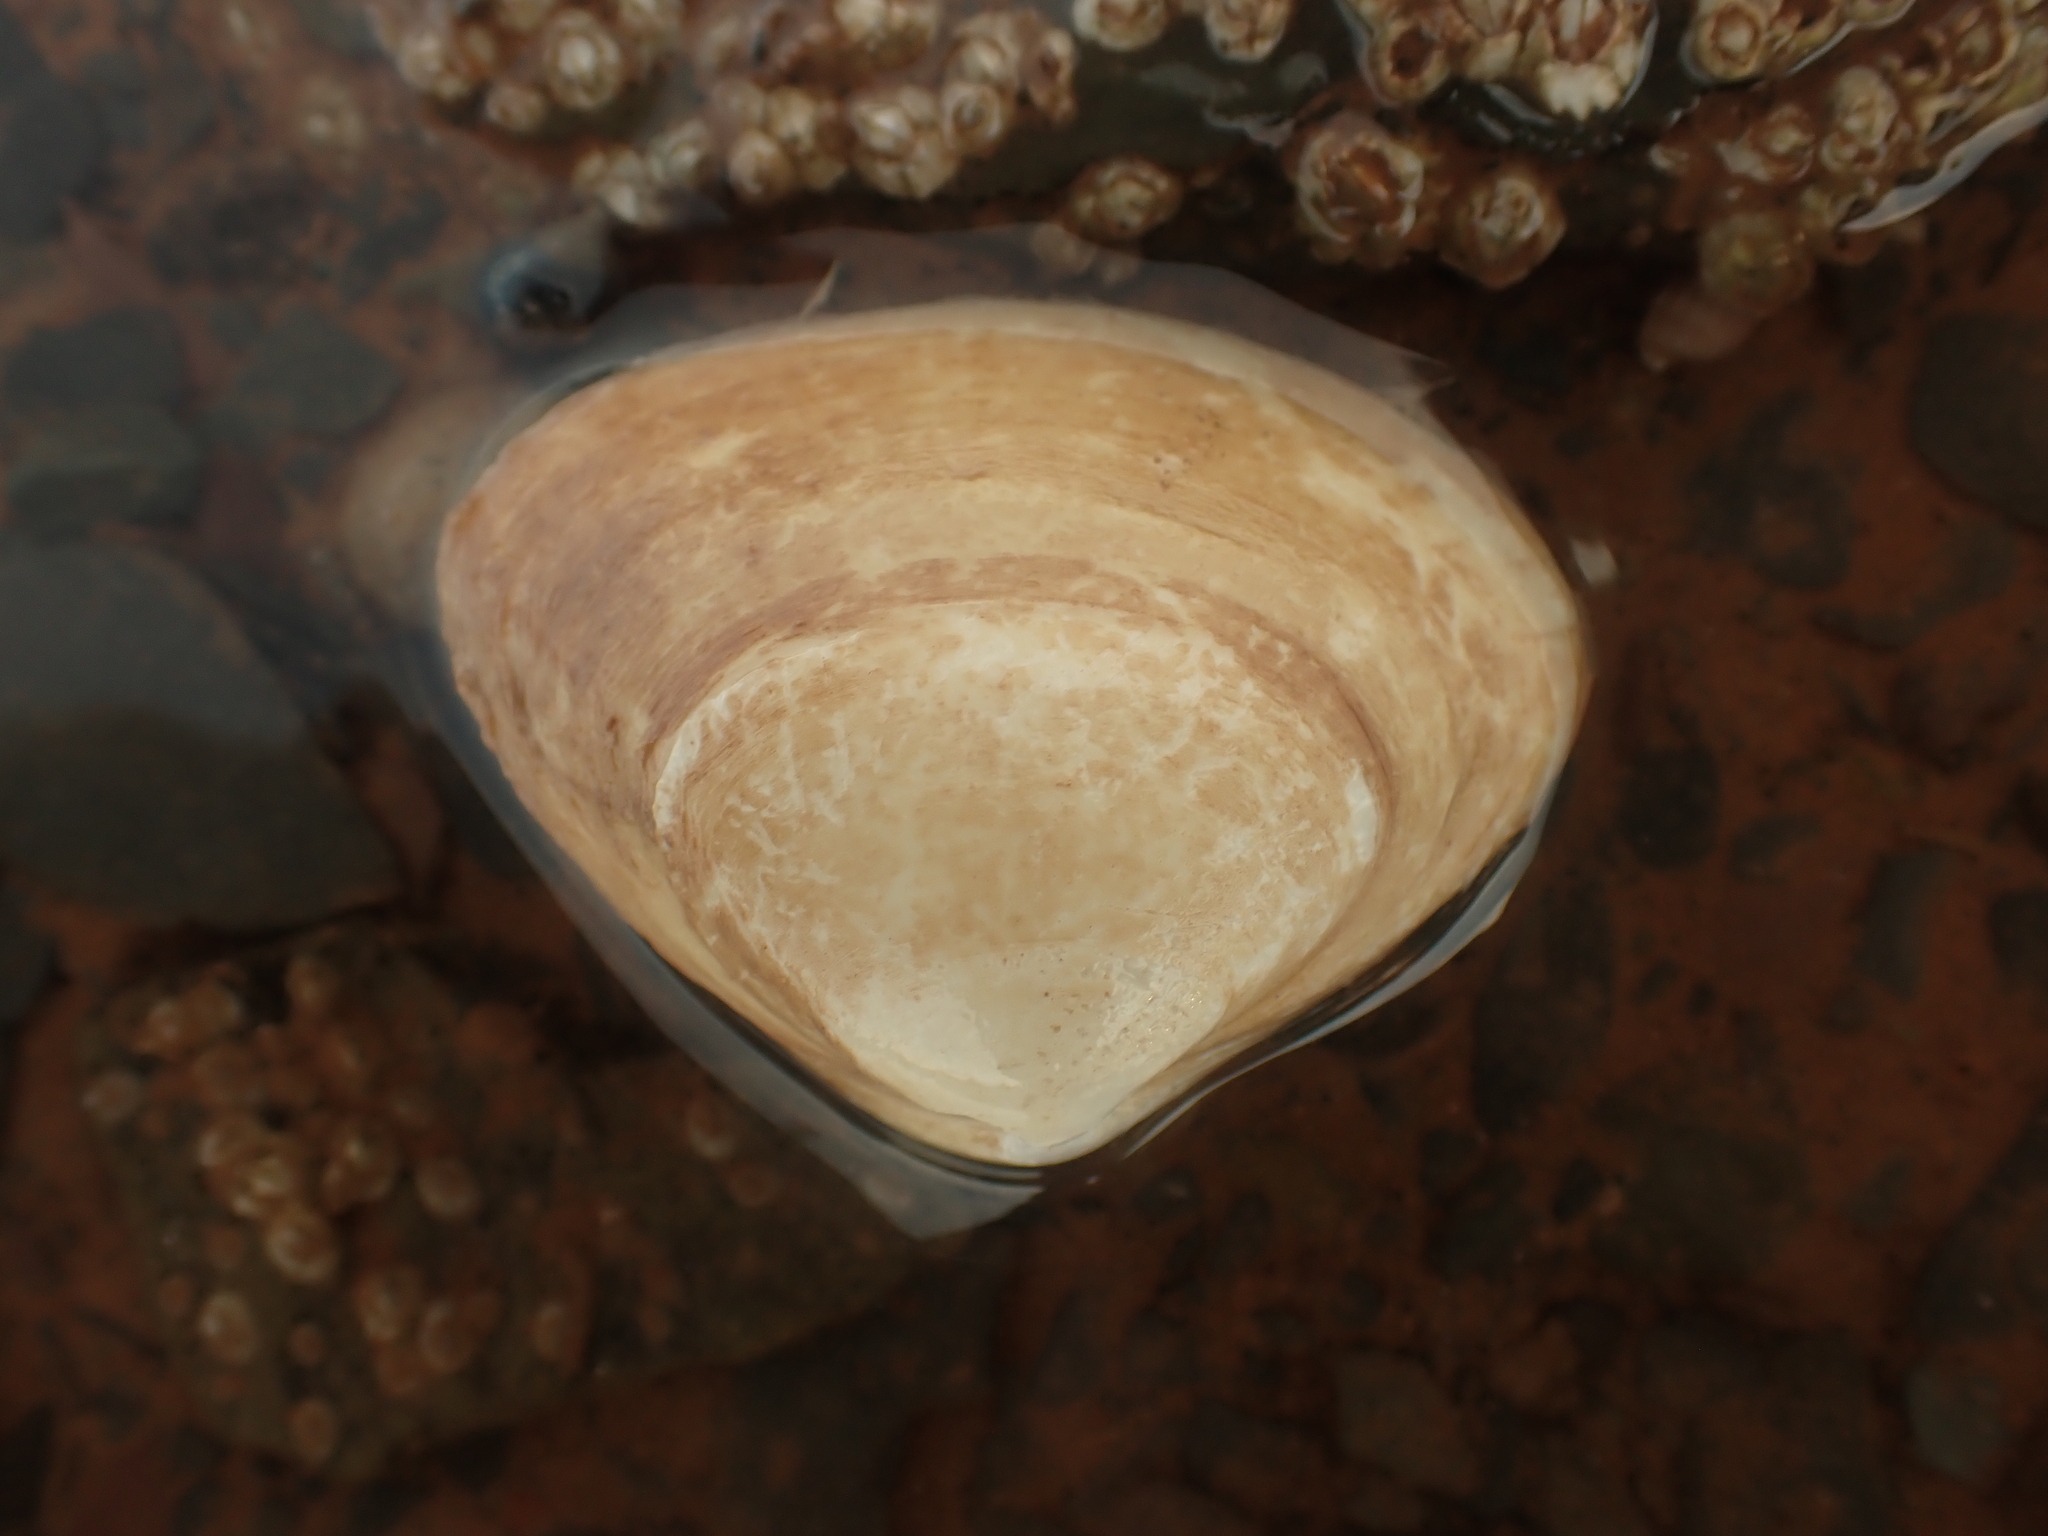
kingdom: Animalia
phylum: Mollusca
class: Bivalvia
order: Venerida
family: Mactridae
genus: Spisula
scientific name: Spisula solidissima
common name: Atlantic surf clam
